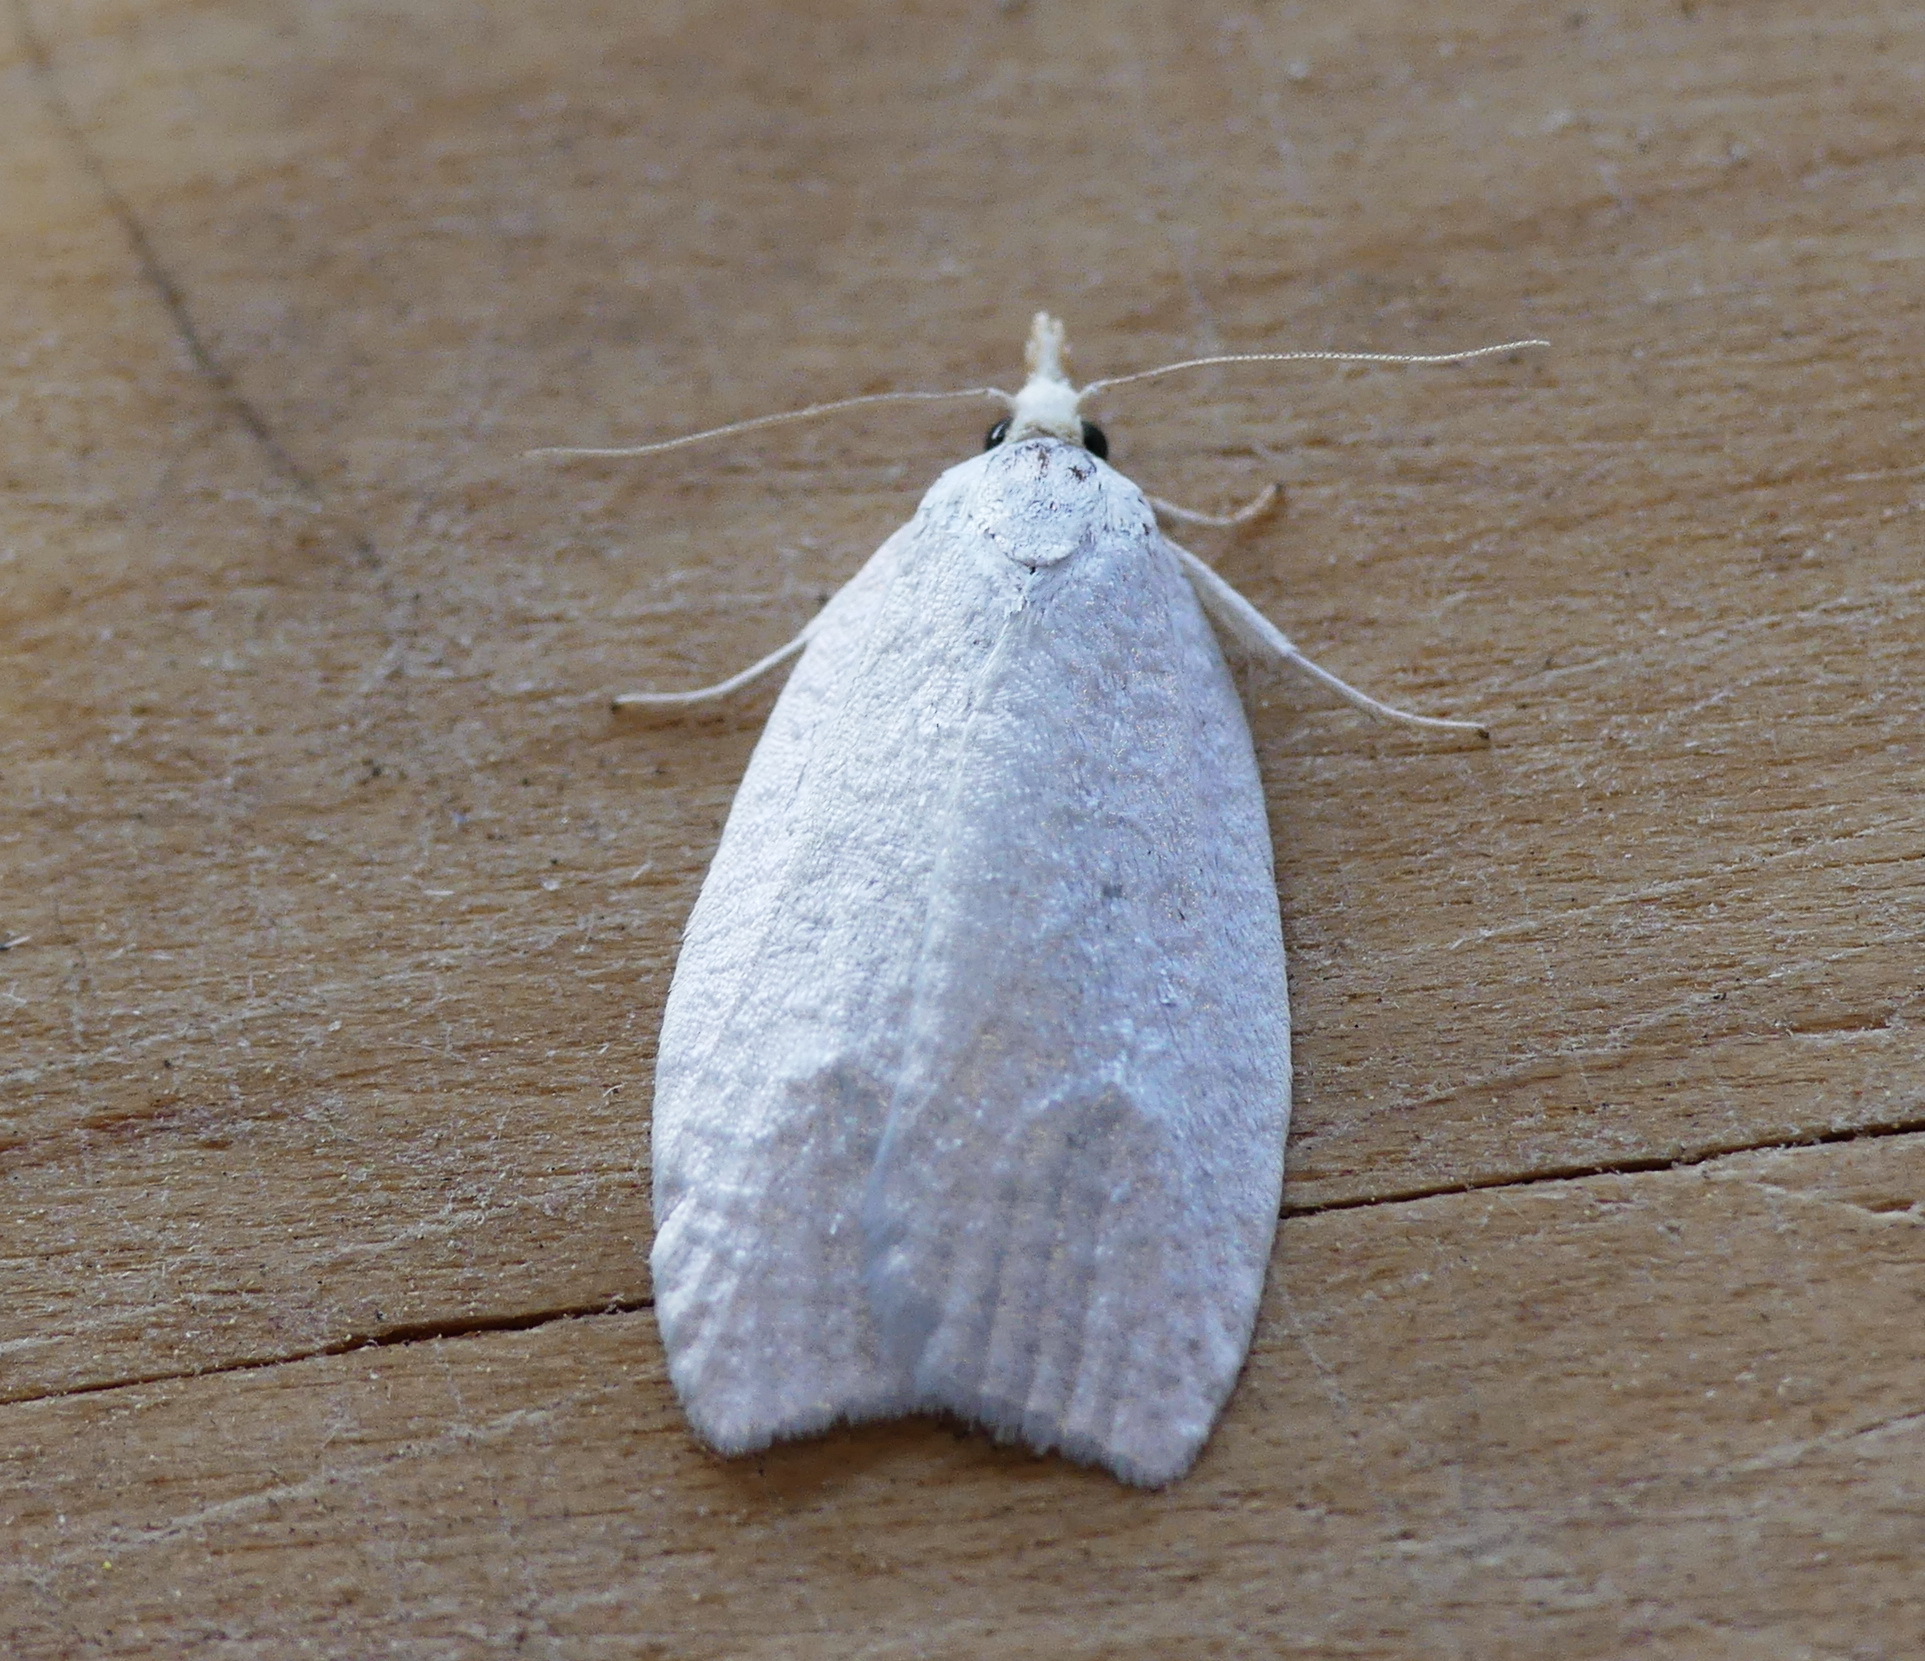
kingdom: Animalia
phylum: Arthropoda
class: Insecta
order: Lepidoptera
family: Tortricidae
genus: Cenopis
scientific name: Cenopis pettitana
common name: Maple-basswood leafroller moth
